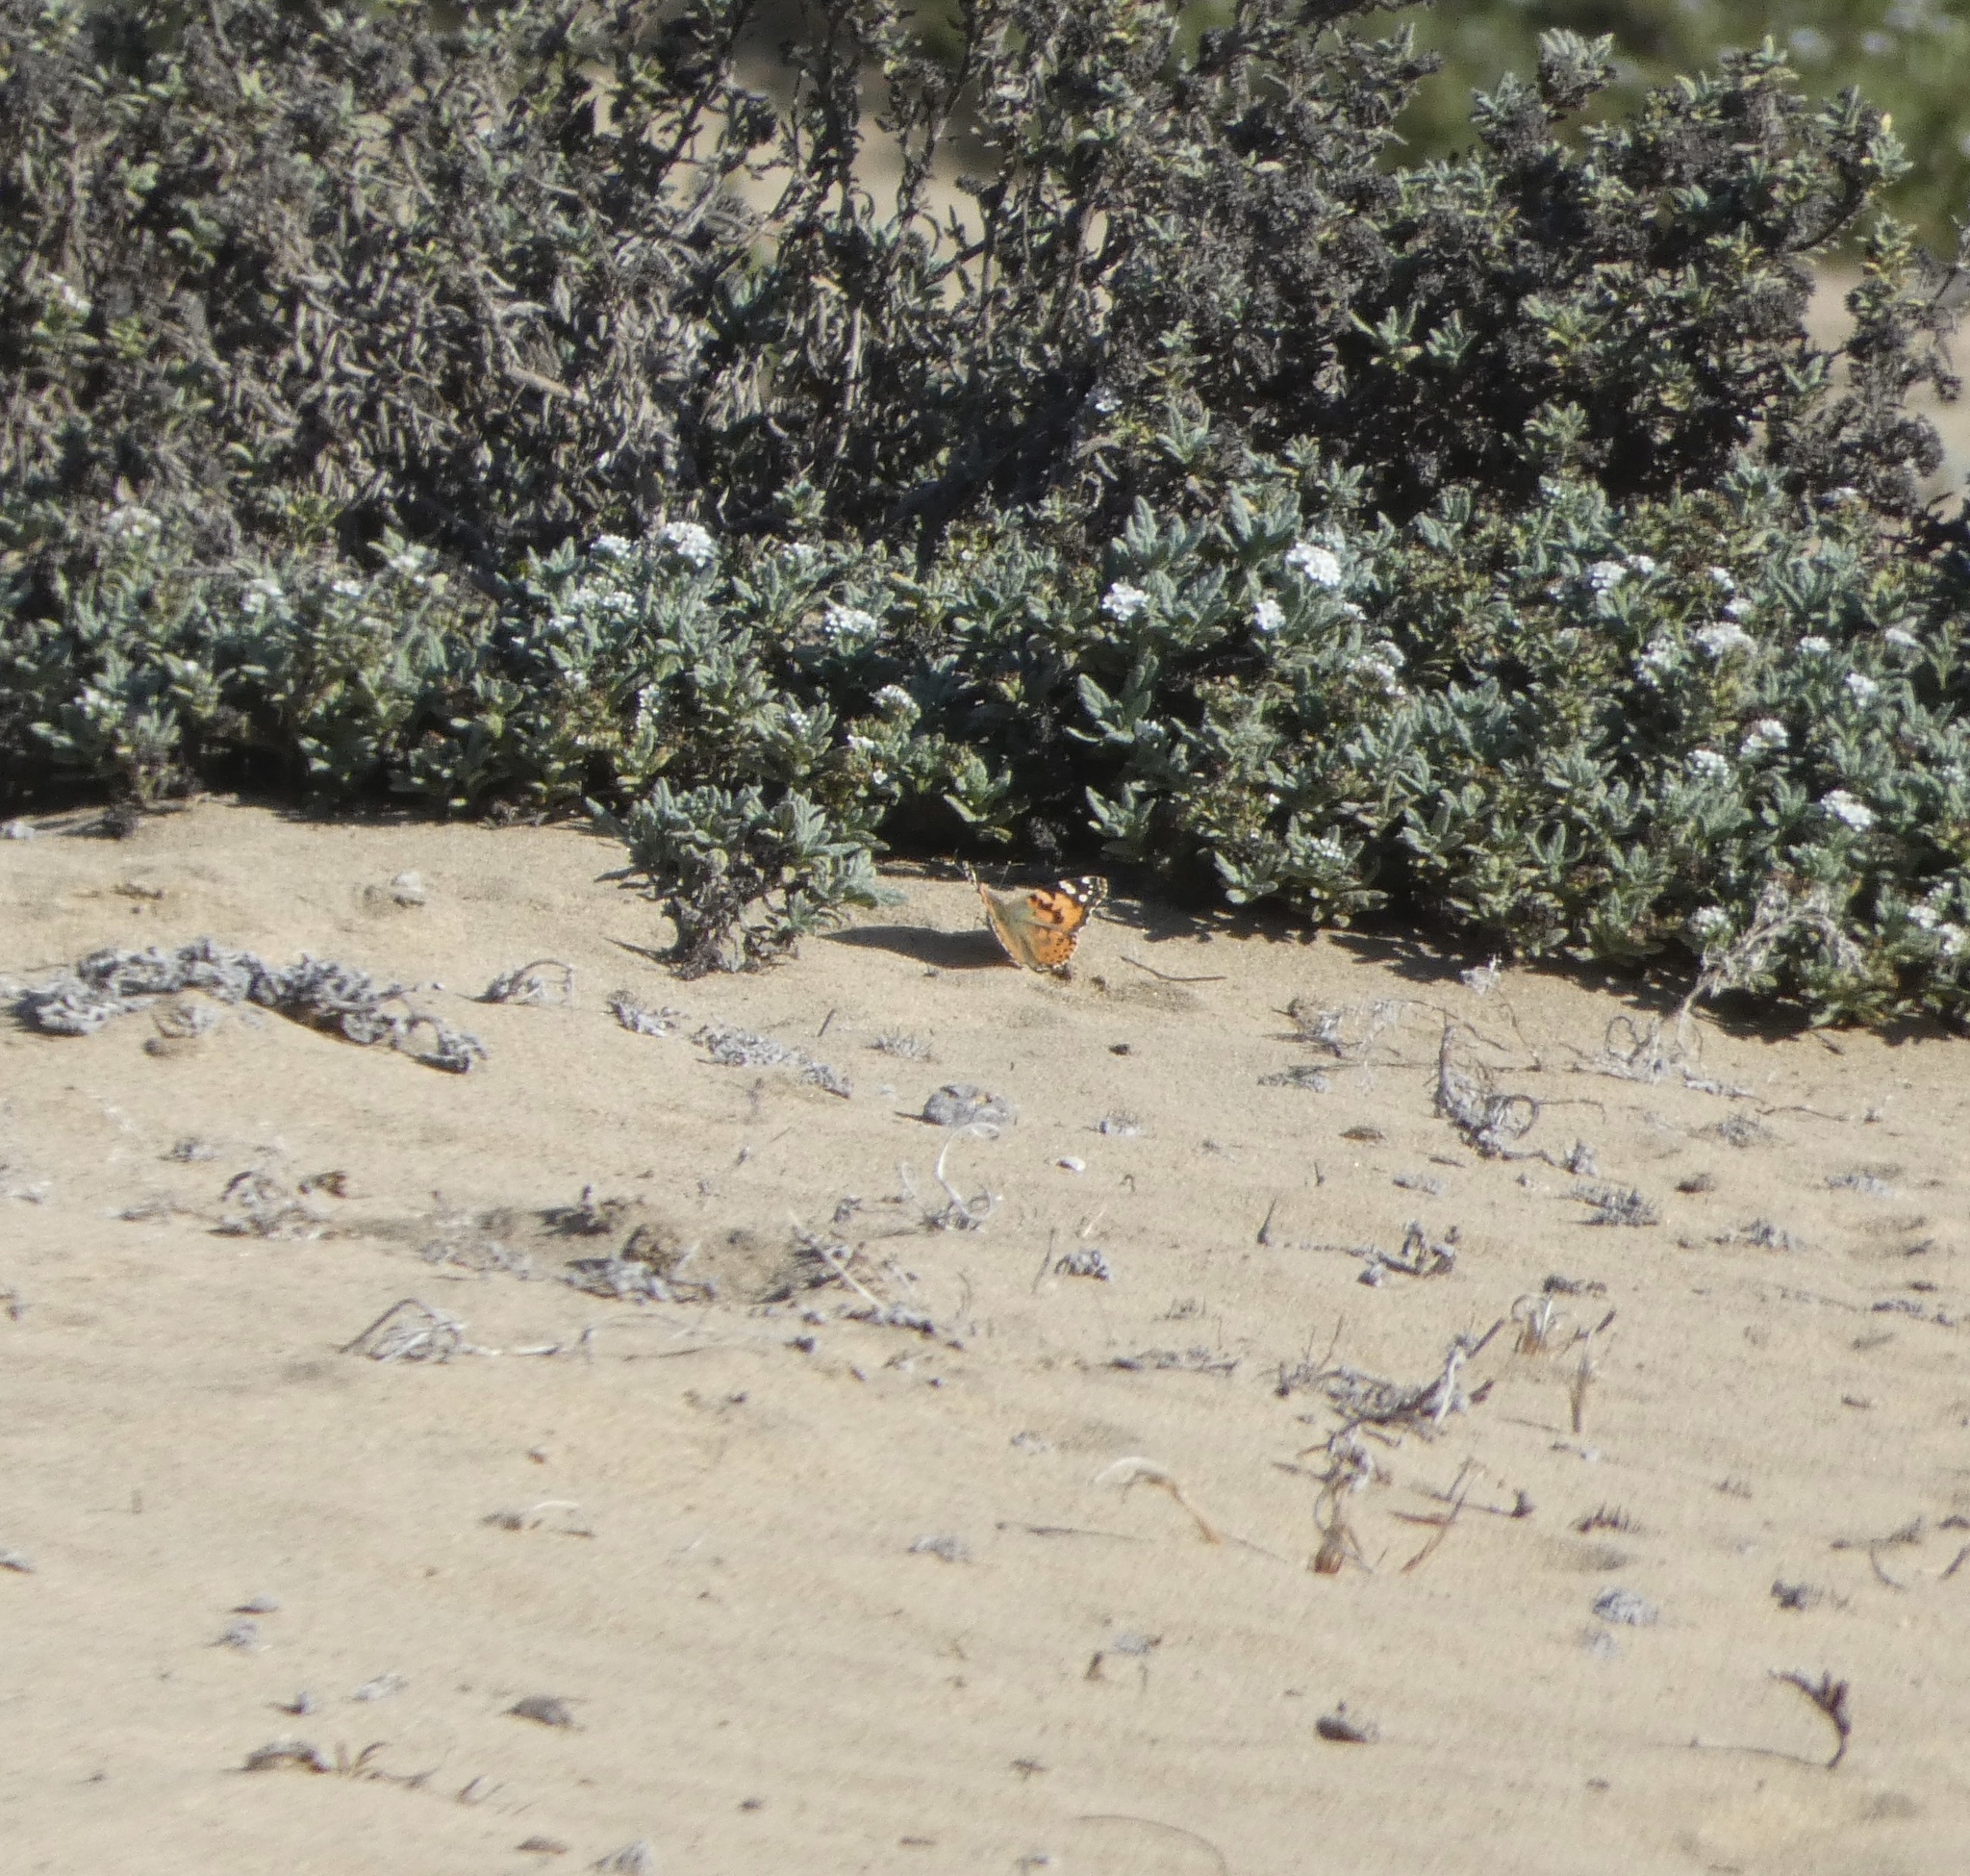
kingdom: Animalia
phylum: Arthropoda
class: Insecta
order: Lepidoptera
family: Nymphalidae
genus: Vanessa
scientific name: Vanessa cardui
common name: Painted lady
